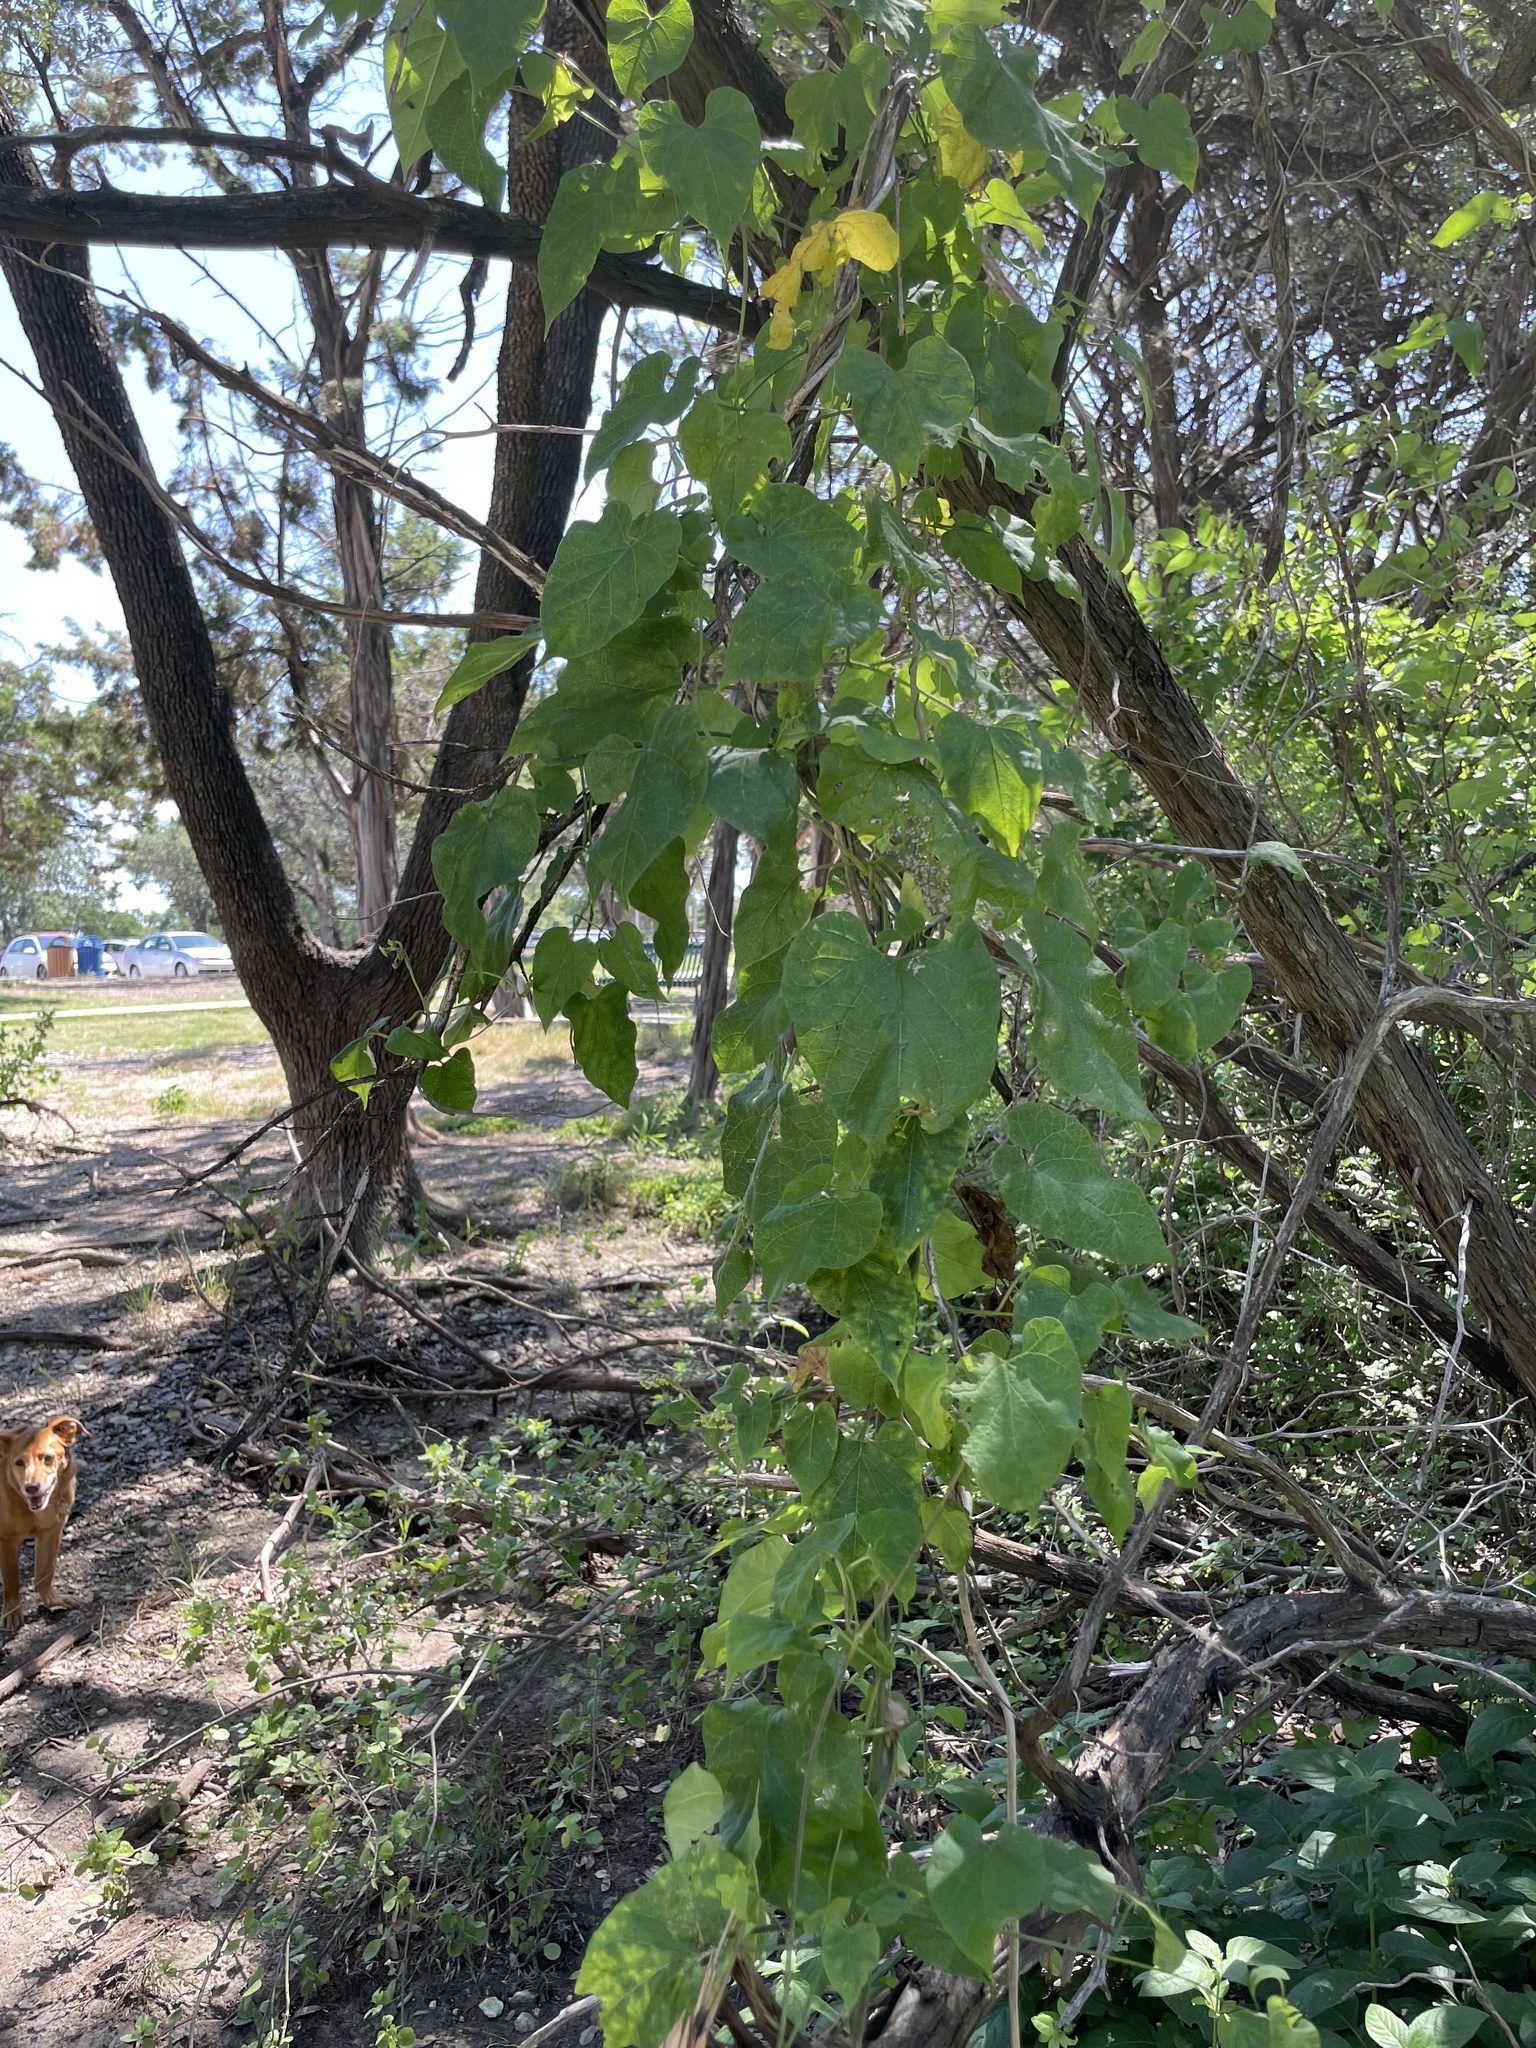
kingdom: Plantae
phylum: Tracheophyta
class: Magnoliopsida
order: Gentianales
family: Apocynaceae
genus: Cynanchum
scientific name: Cynanchum racemosum
